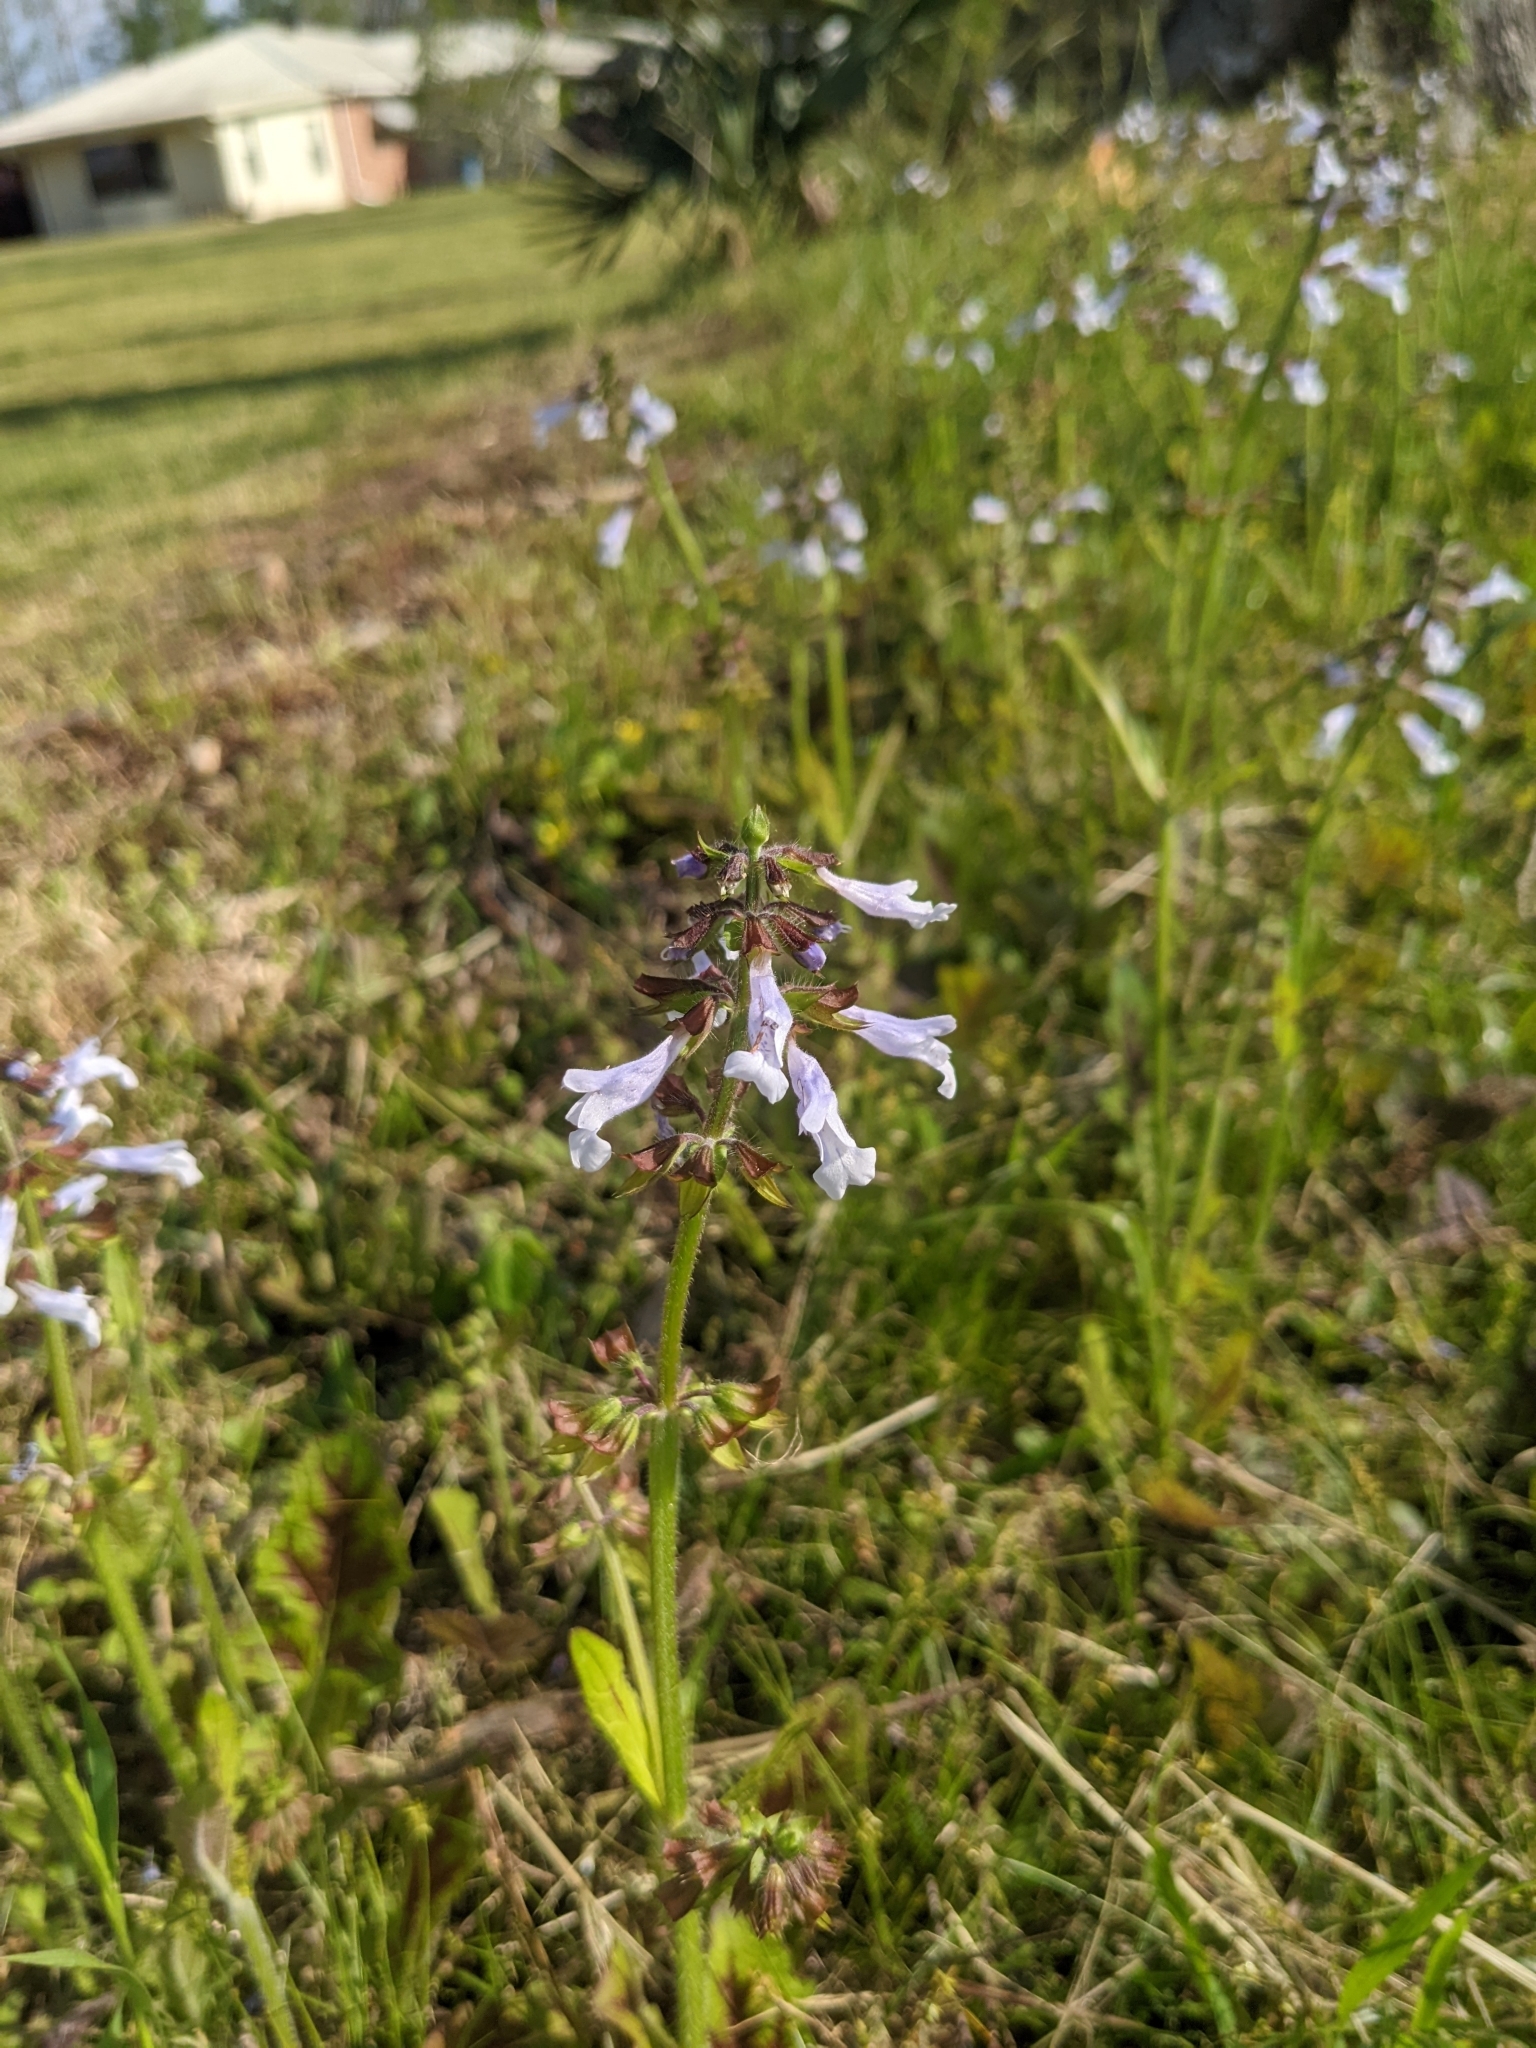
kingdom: Plantae
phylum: Tracheophyta
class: Magnoliopsida
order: Lamiales
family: Lamiaceae
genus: Salvia
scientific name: Salvia lyrata
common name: Cancerweed
